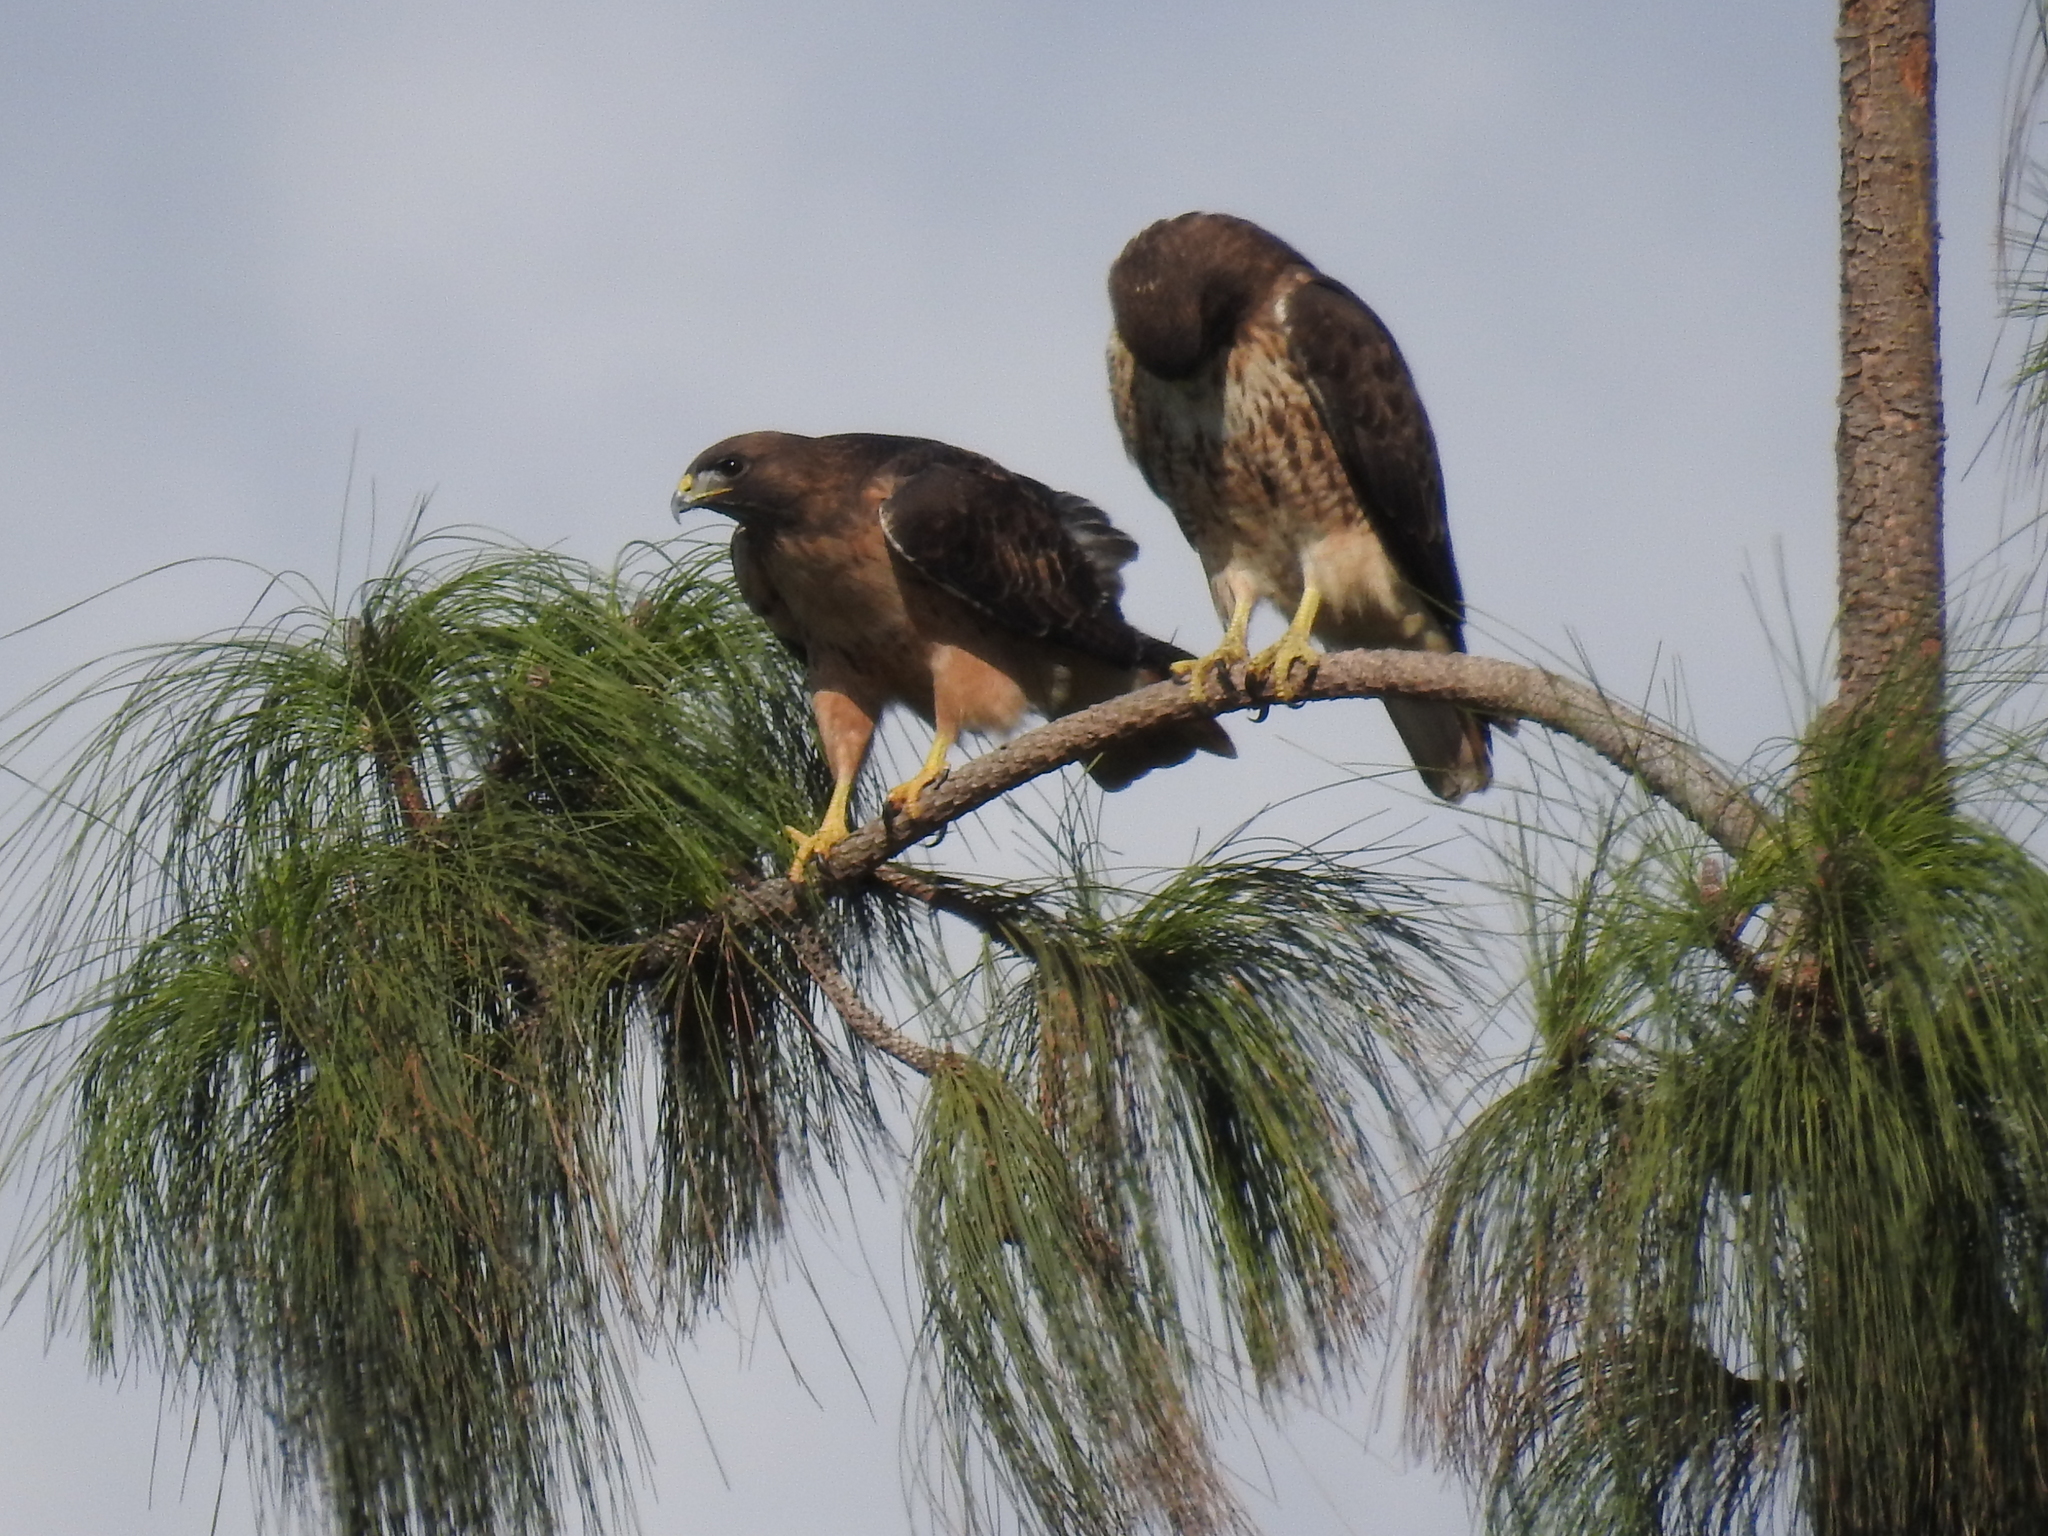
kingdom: Animalia
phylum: Chordata
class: Aves
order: Accipitriformes
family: Accipitridae
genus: Buteo
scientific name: Buteo jamaicensis
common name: Red-tailed hawk
